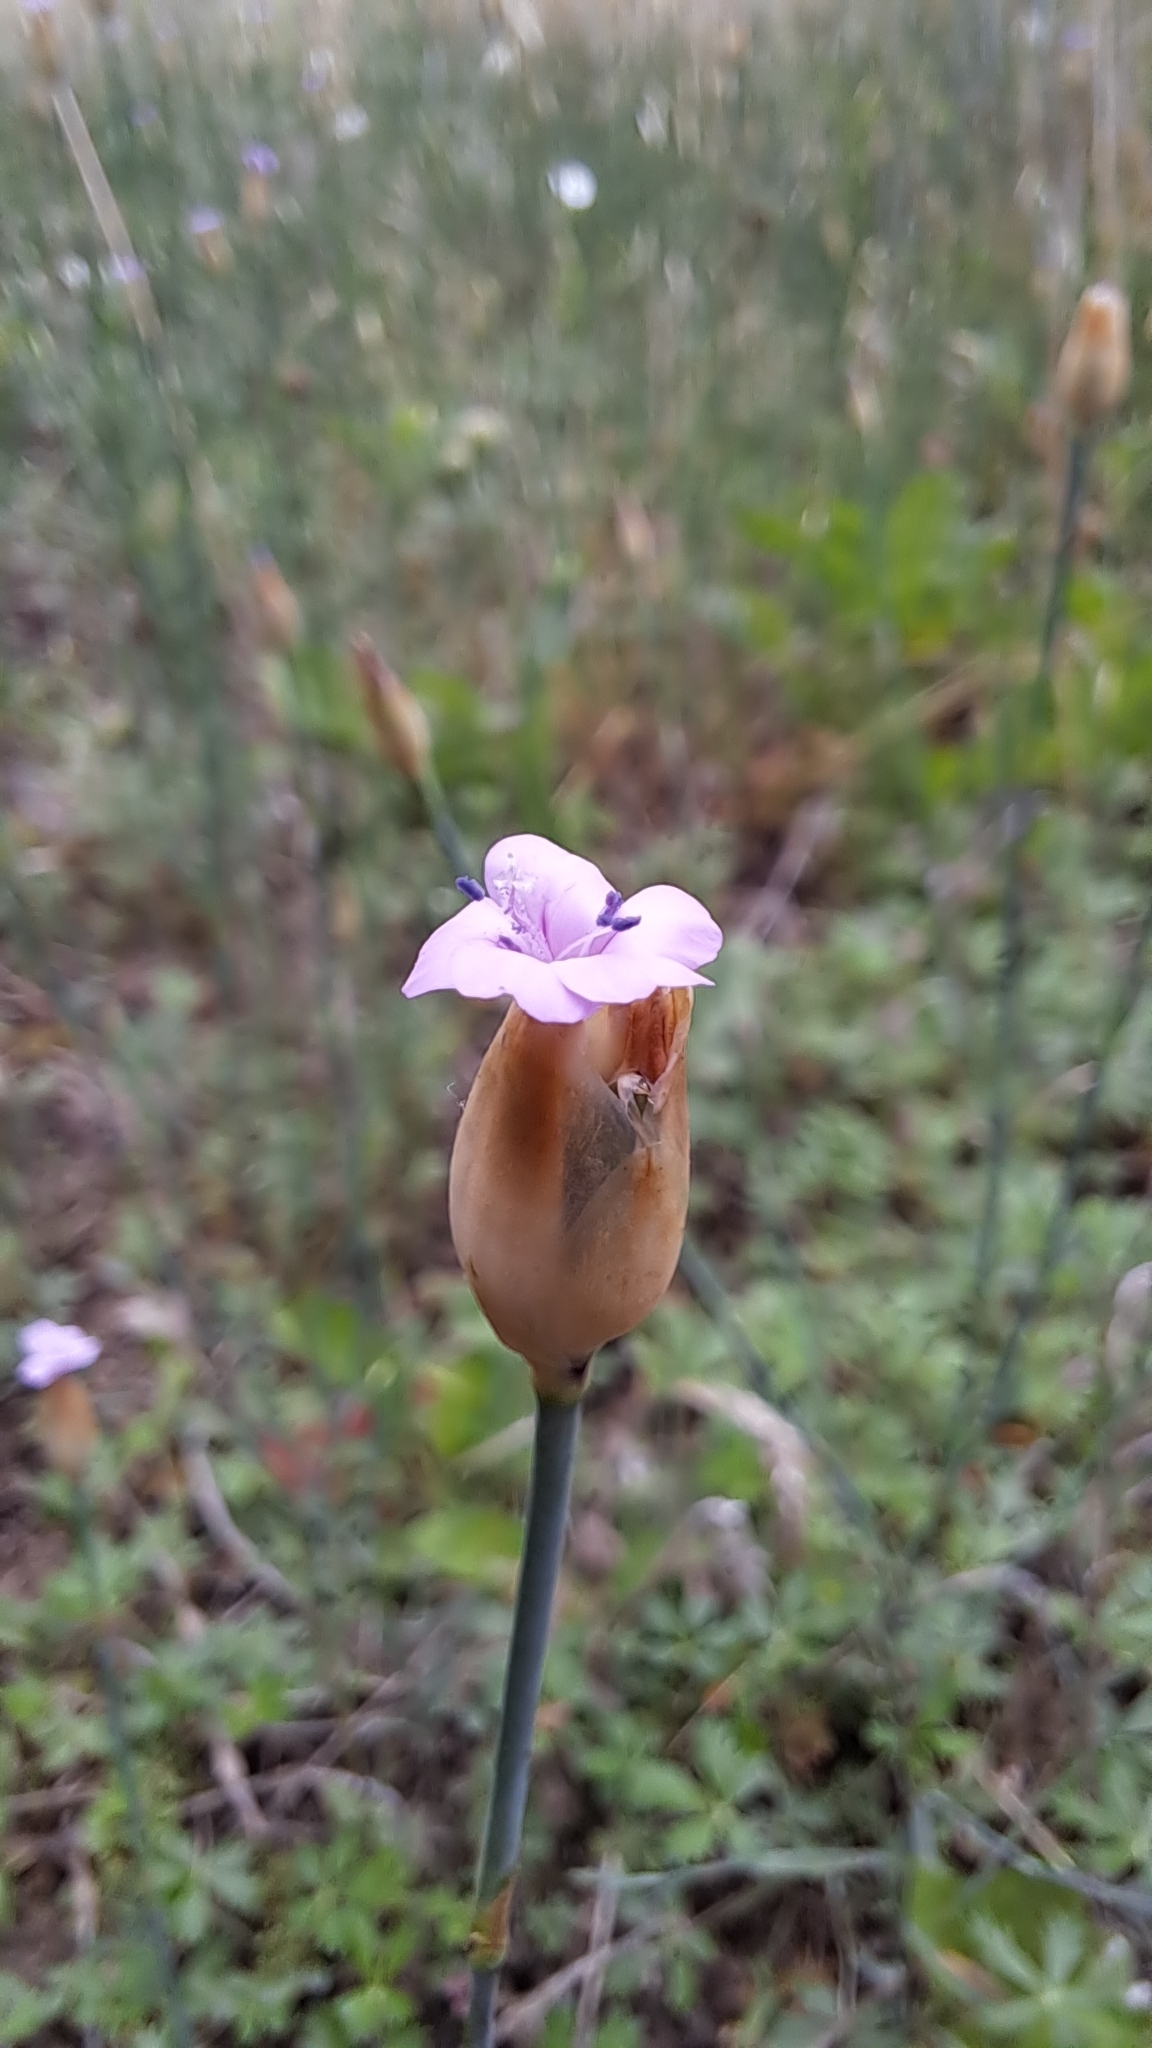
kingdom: Plantae
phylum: Tracheophyta
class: Magnoliopsida
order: Caryophyllales
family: Caryophyllaceae
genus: Petrorhagia
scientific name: Petrorhagia prolifera
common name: Proliferous pink
